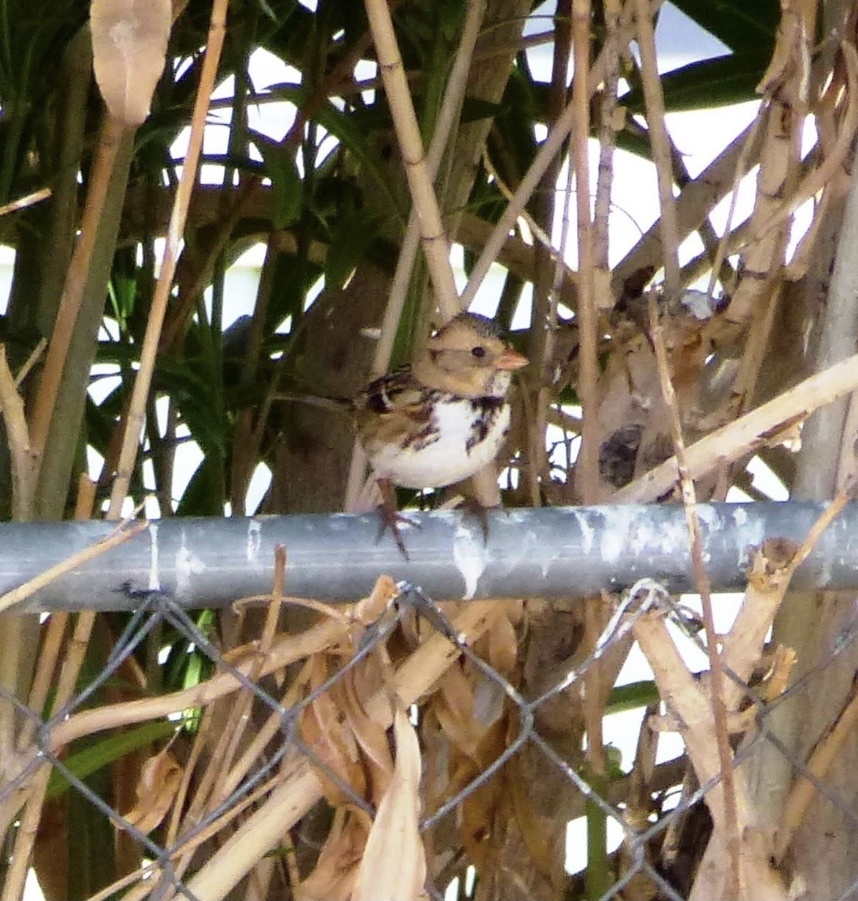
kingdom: Animalia
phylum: Chordata
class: Aves
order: Passeriformes
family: Passerellidae
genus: Zonotrichia
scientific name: Zonotrichia querula
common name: Harris's sparrow
